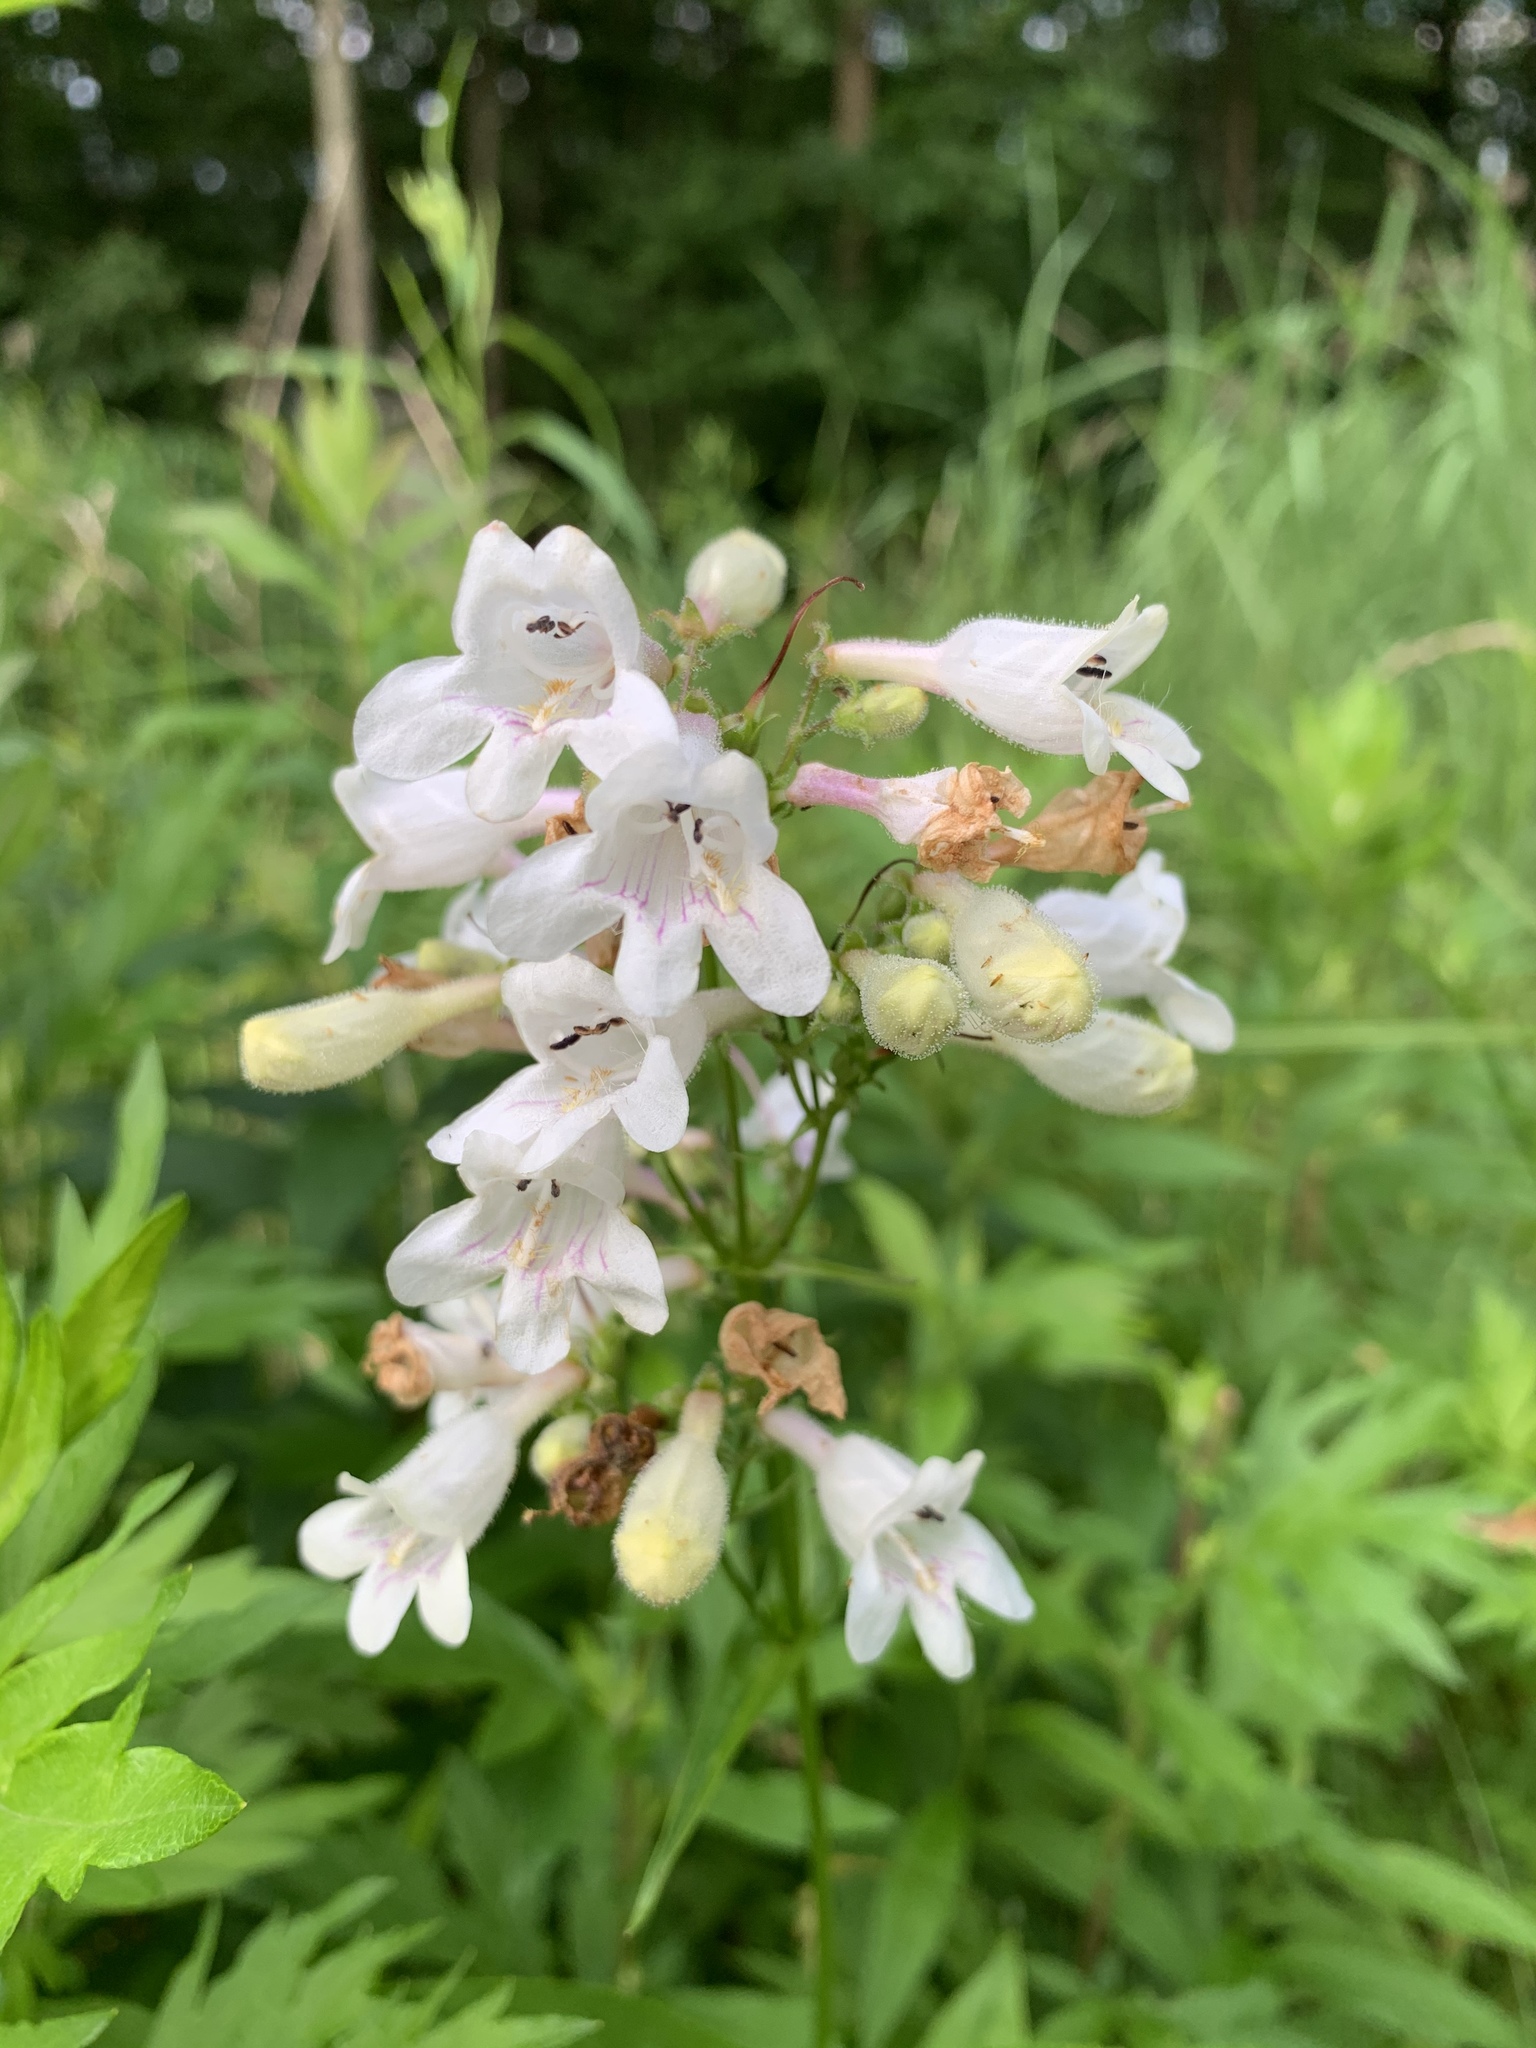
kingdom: Plantae
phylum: Tracheophyta
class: Magnoliopsida
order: Lamiales
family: Plantaginaceae
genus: Penstemon
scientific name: Penstemon digitalis
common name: Foxglove beardtongue
